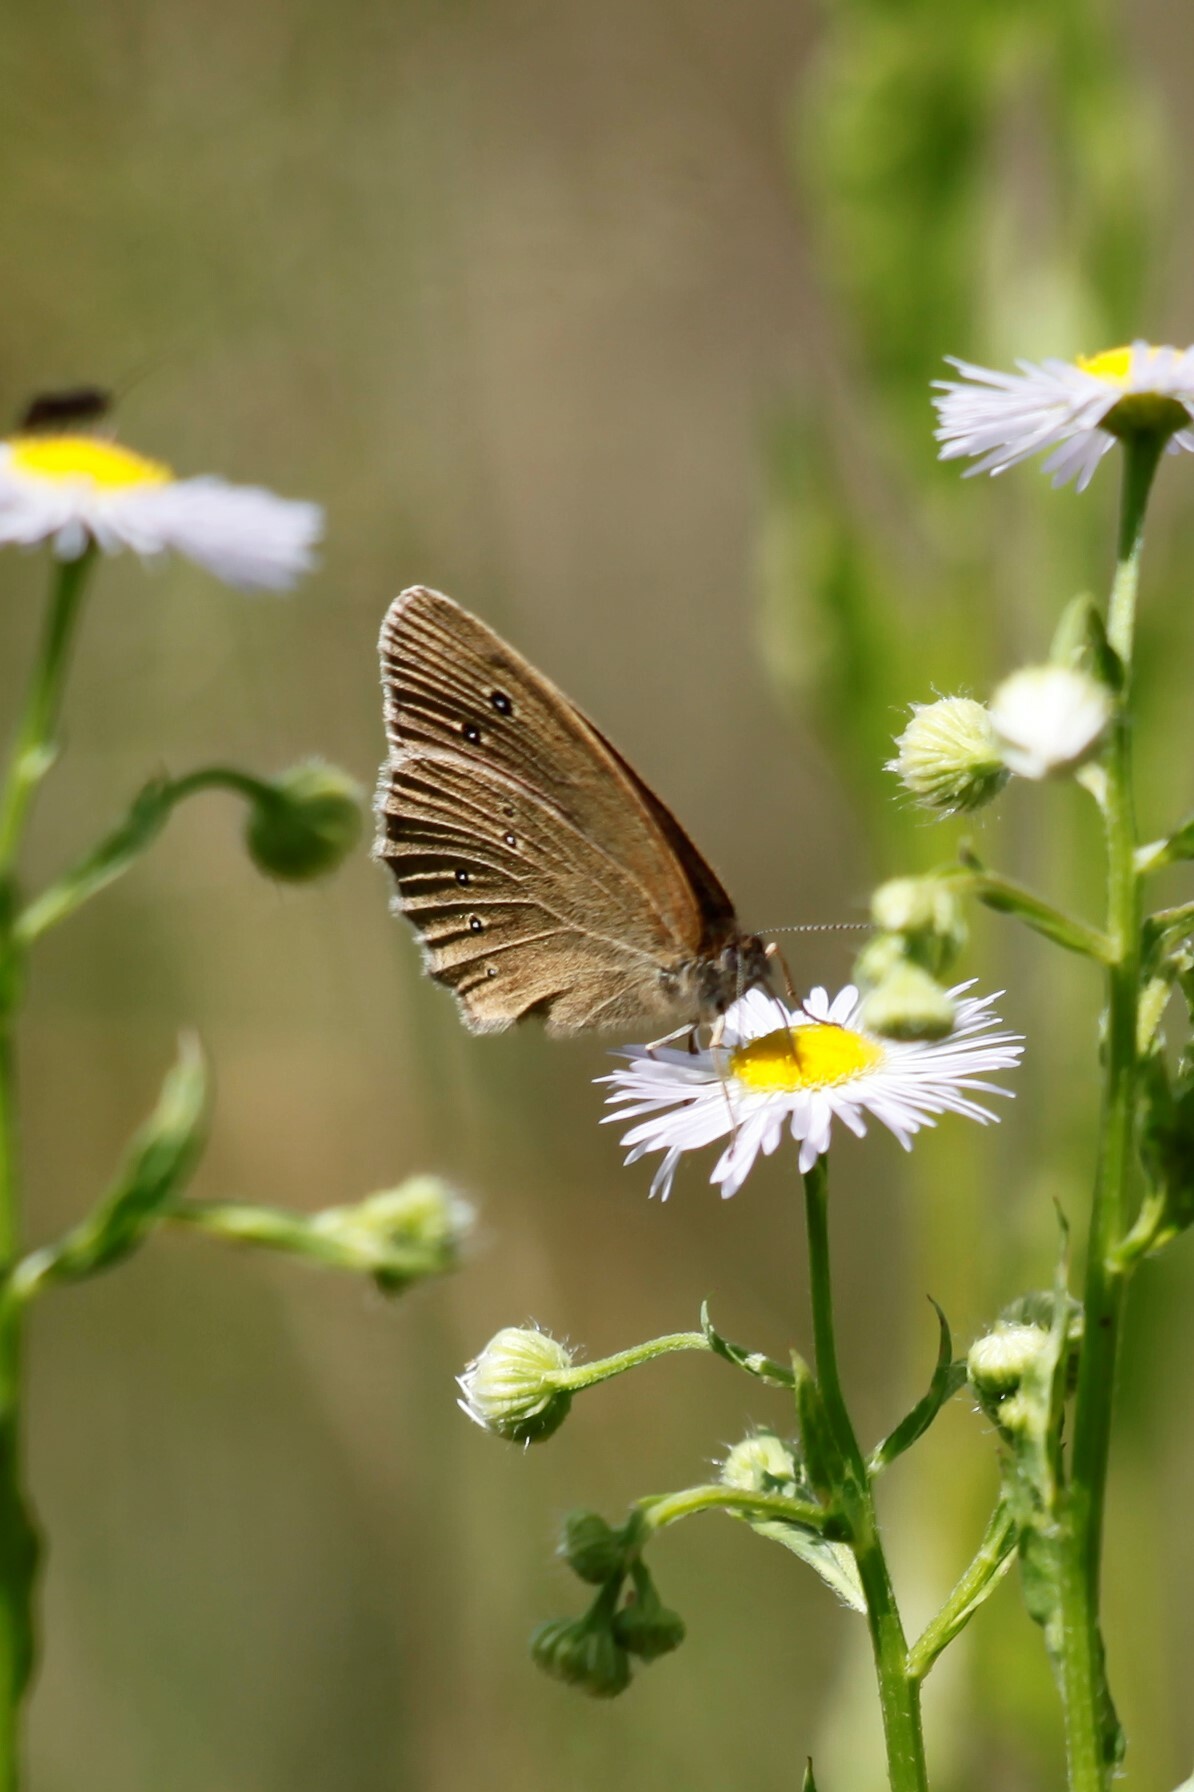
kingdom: Animalia
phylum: Arthropoda
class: Insecta
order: Lepidoptera
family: Nymphalidae
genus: Aphantopus
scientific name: Aphantopus hyperantus
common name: Ringlet
